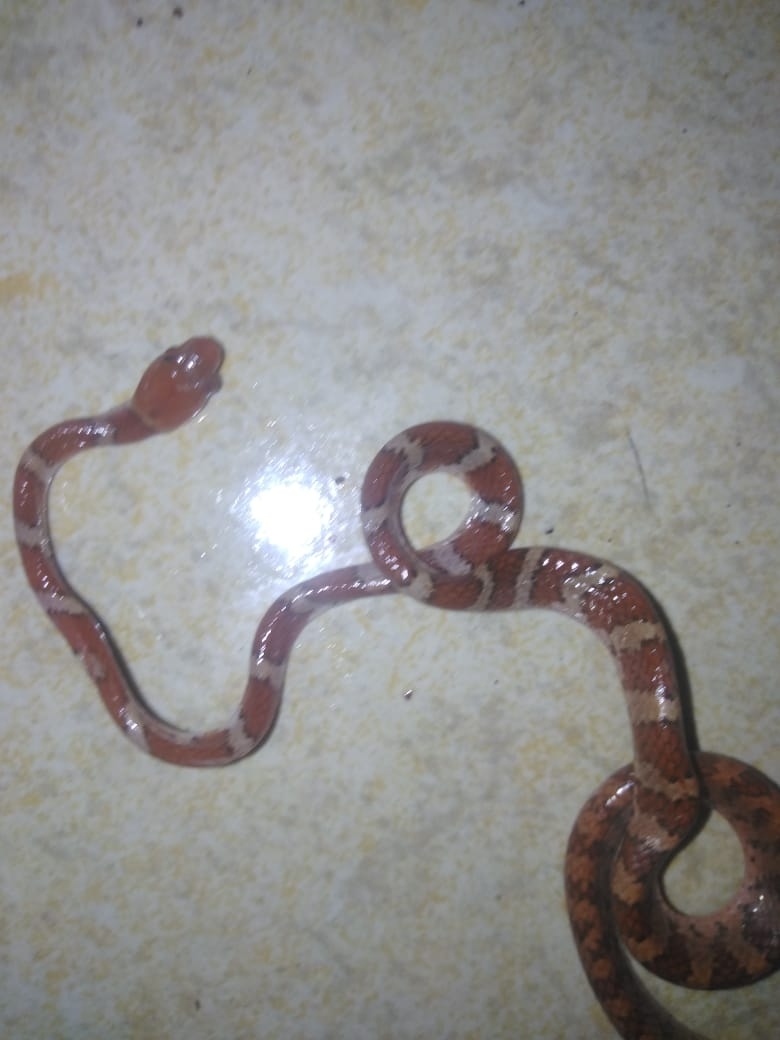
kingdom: Animalia
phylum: Chordata
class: Squamata
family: Colubridae
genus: Imantodes
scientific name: Imantodes gemmistratus
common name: Central american tree snake
